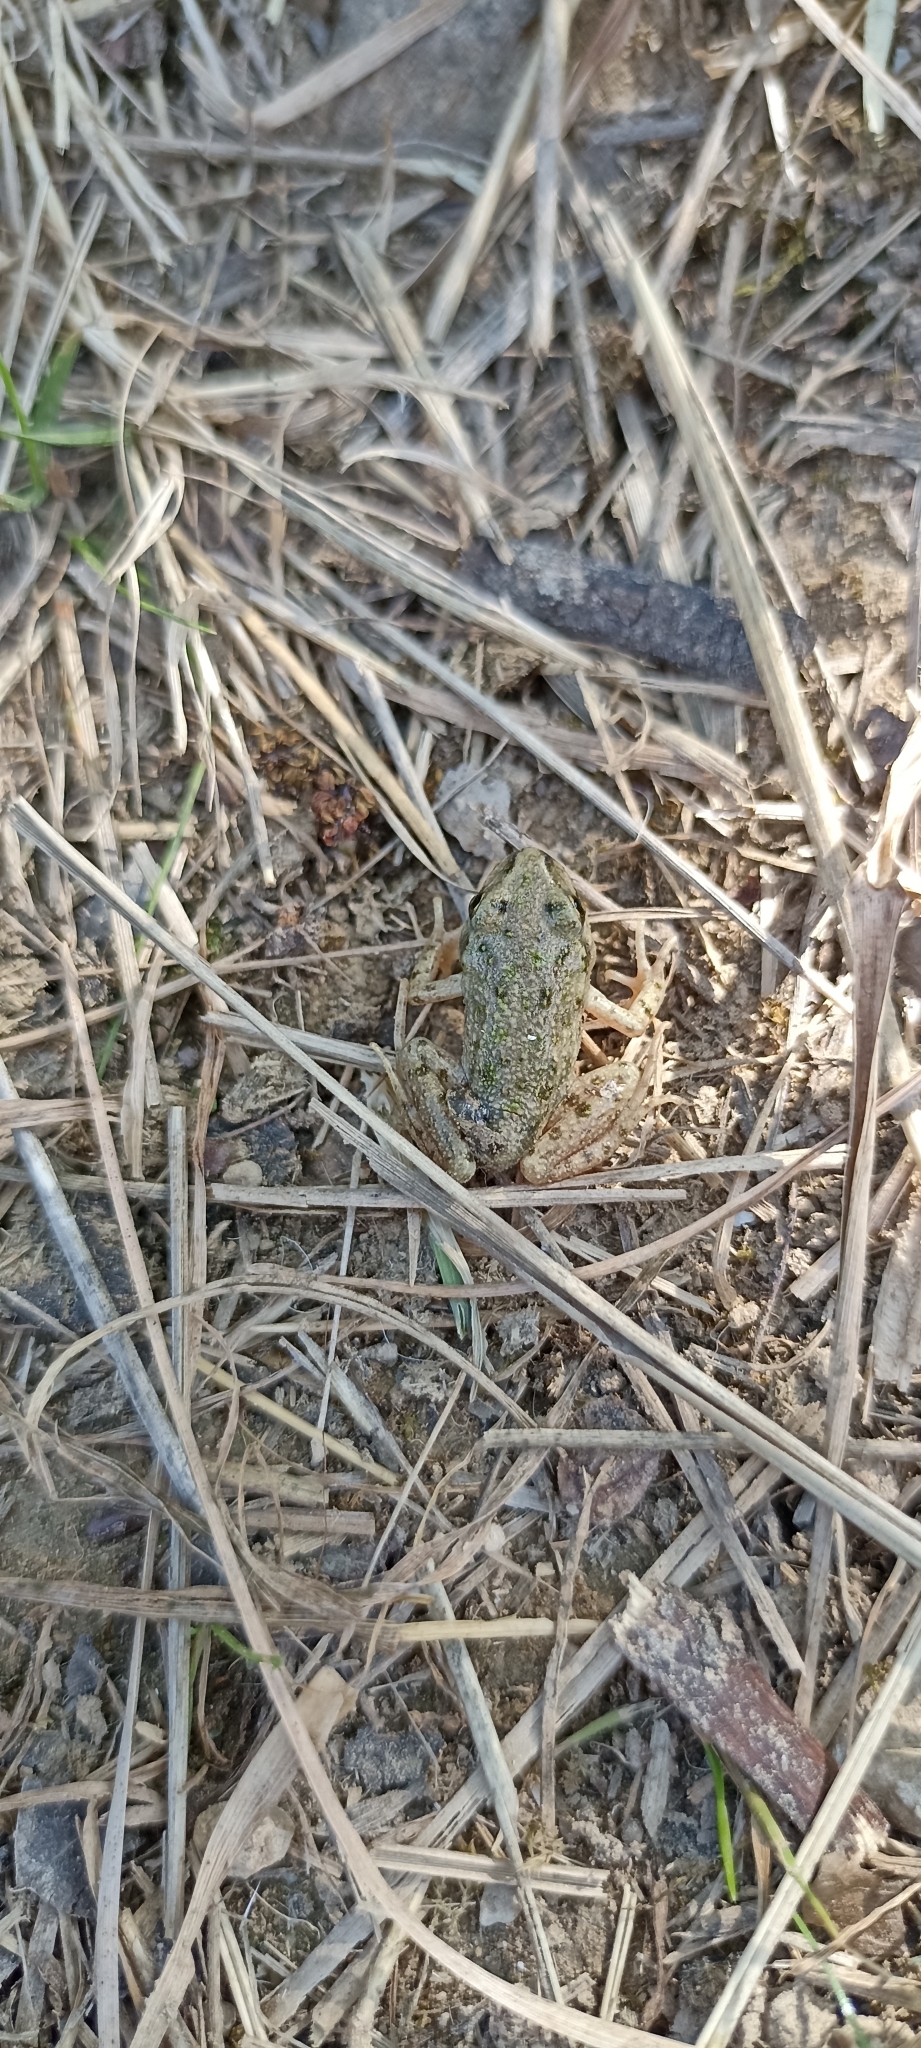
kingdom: Animalia
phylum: Chordata
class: Amphibia
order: Anura
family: Pelodytidae
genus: Pelodytes
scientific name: Pelodytes punctatus
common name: Parsley frog
